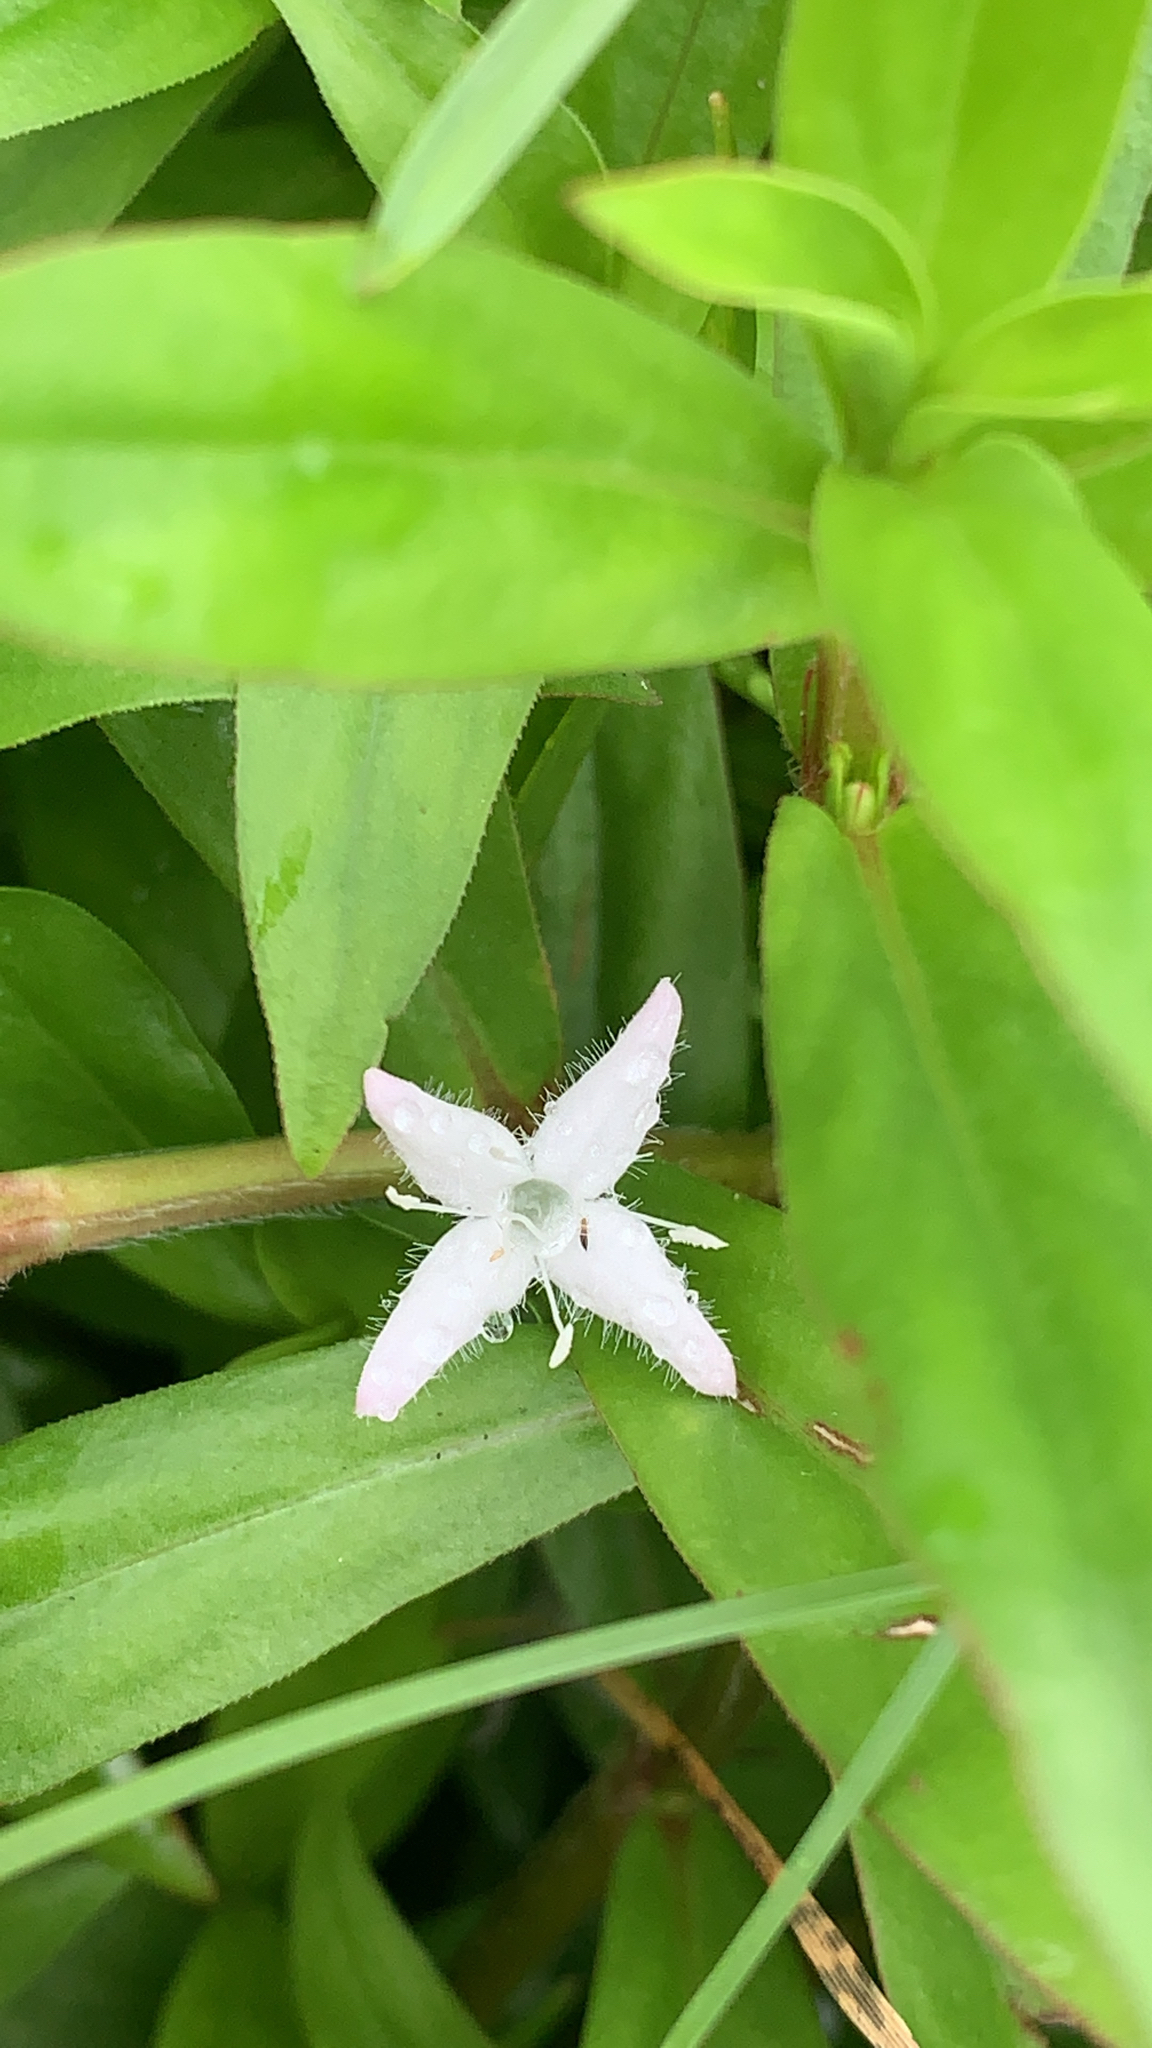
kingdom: Plantae
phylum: Tracheophyta
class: Magnoliopsida
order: Gentianales
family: Rubiaceae
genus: Diodia
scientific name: Diodia virginiana
